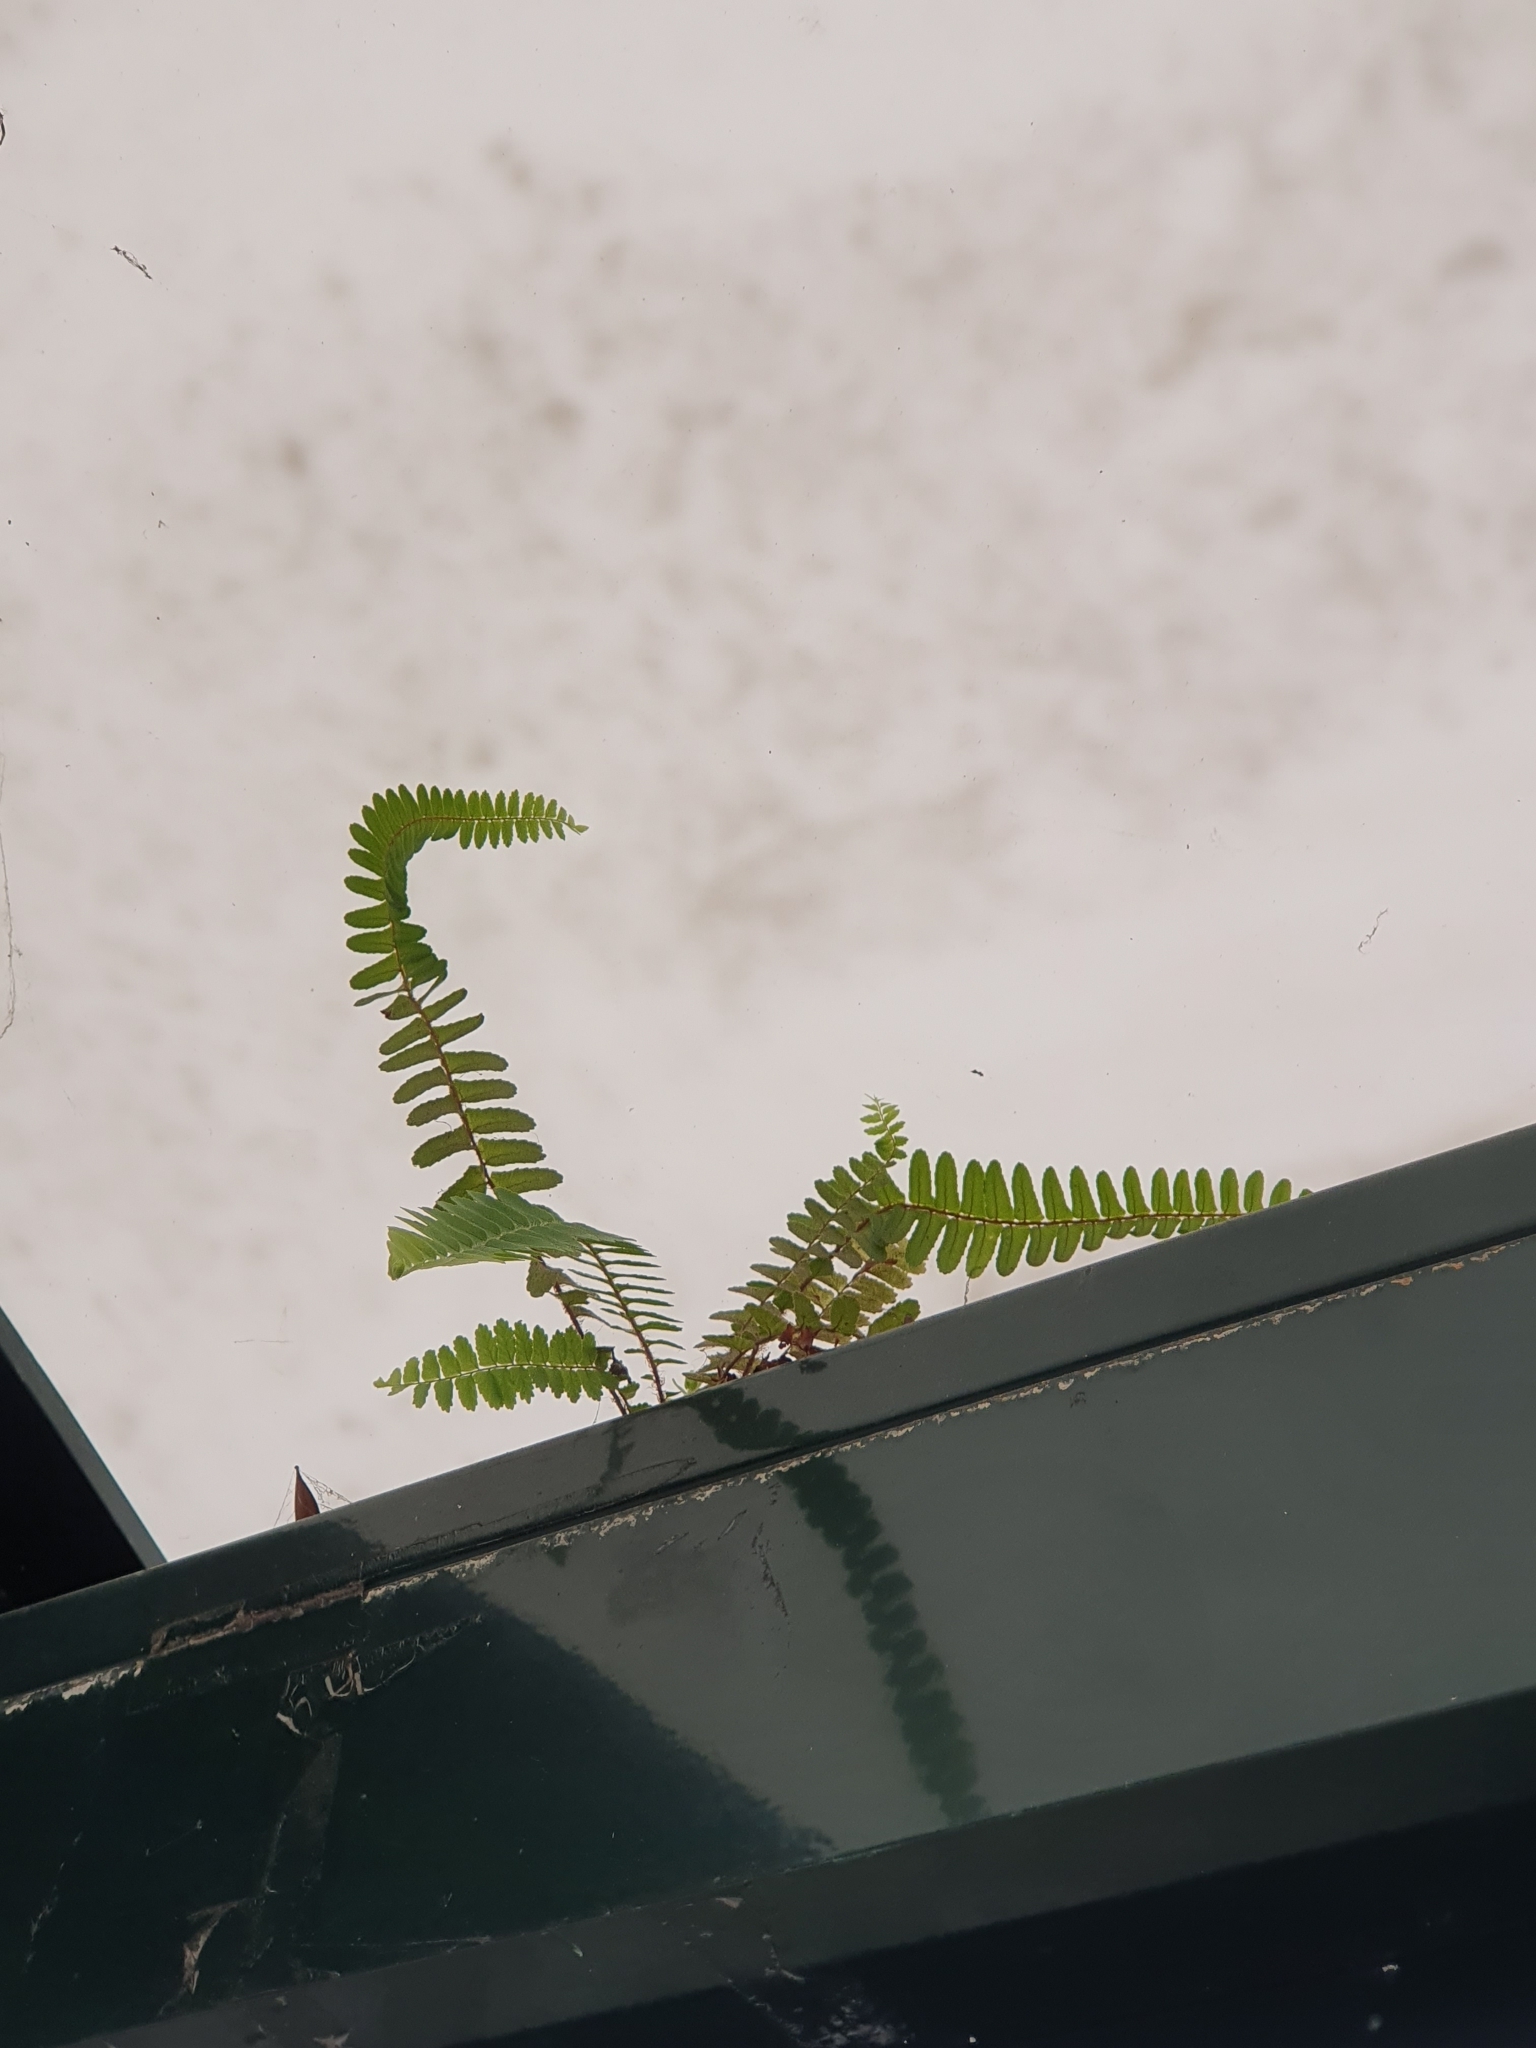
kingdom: Plantae
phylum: Tracheophyta
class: Polypodiopsida
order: Polypodiales
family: Nephrolepidaceae
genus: Nephrolepis
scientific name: Nephrolepis cordifolia
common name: Narrow swordfern
